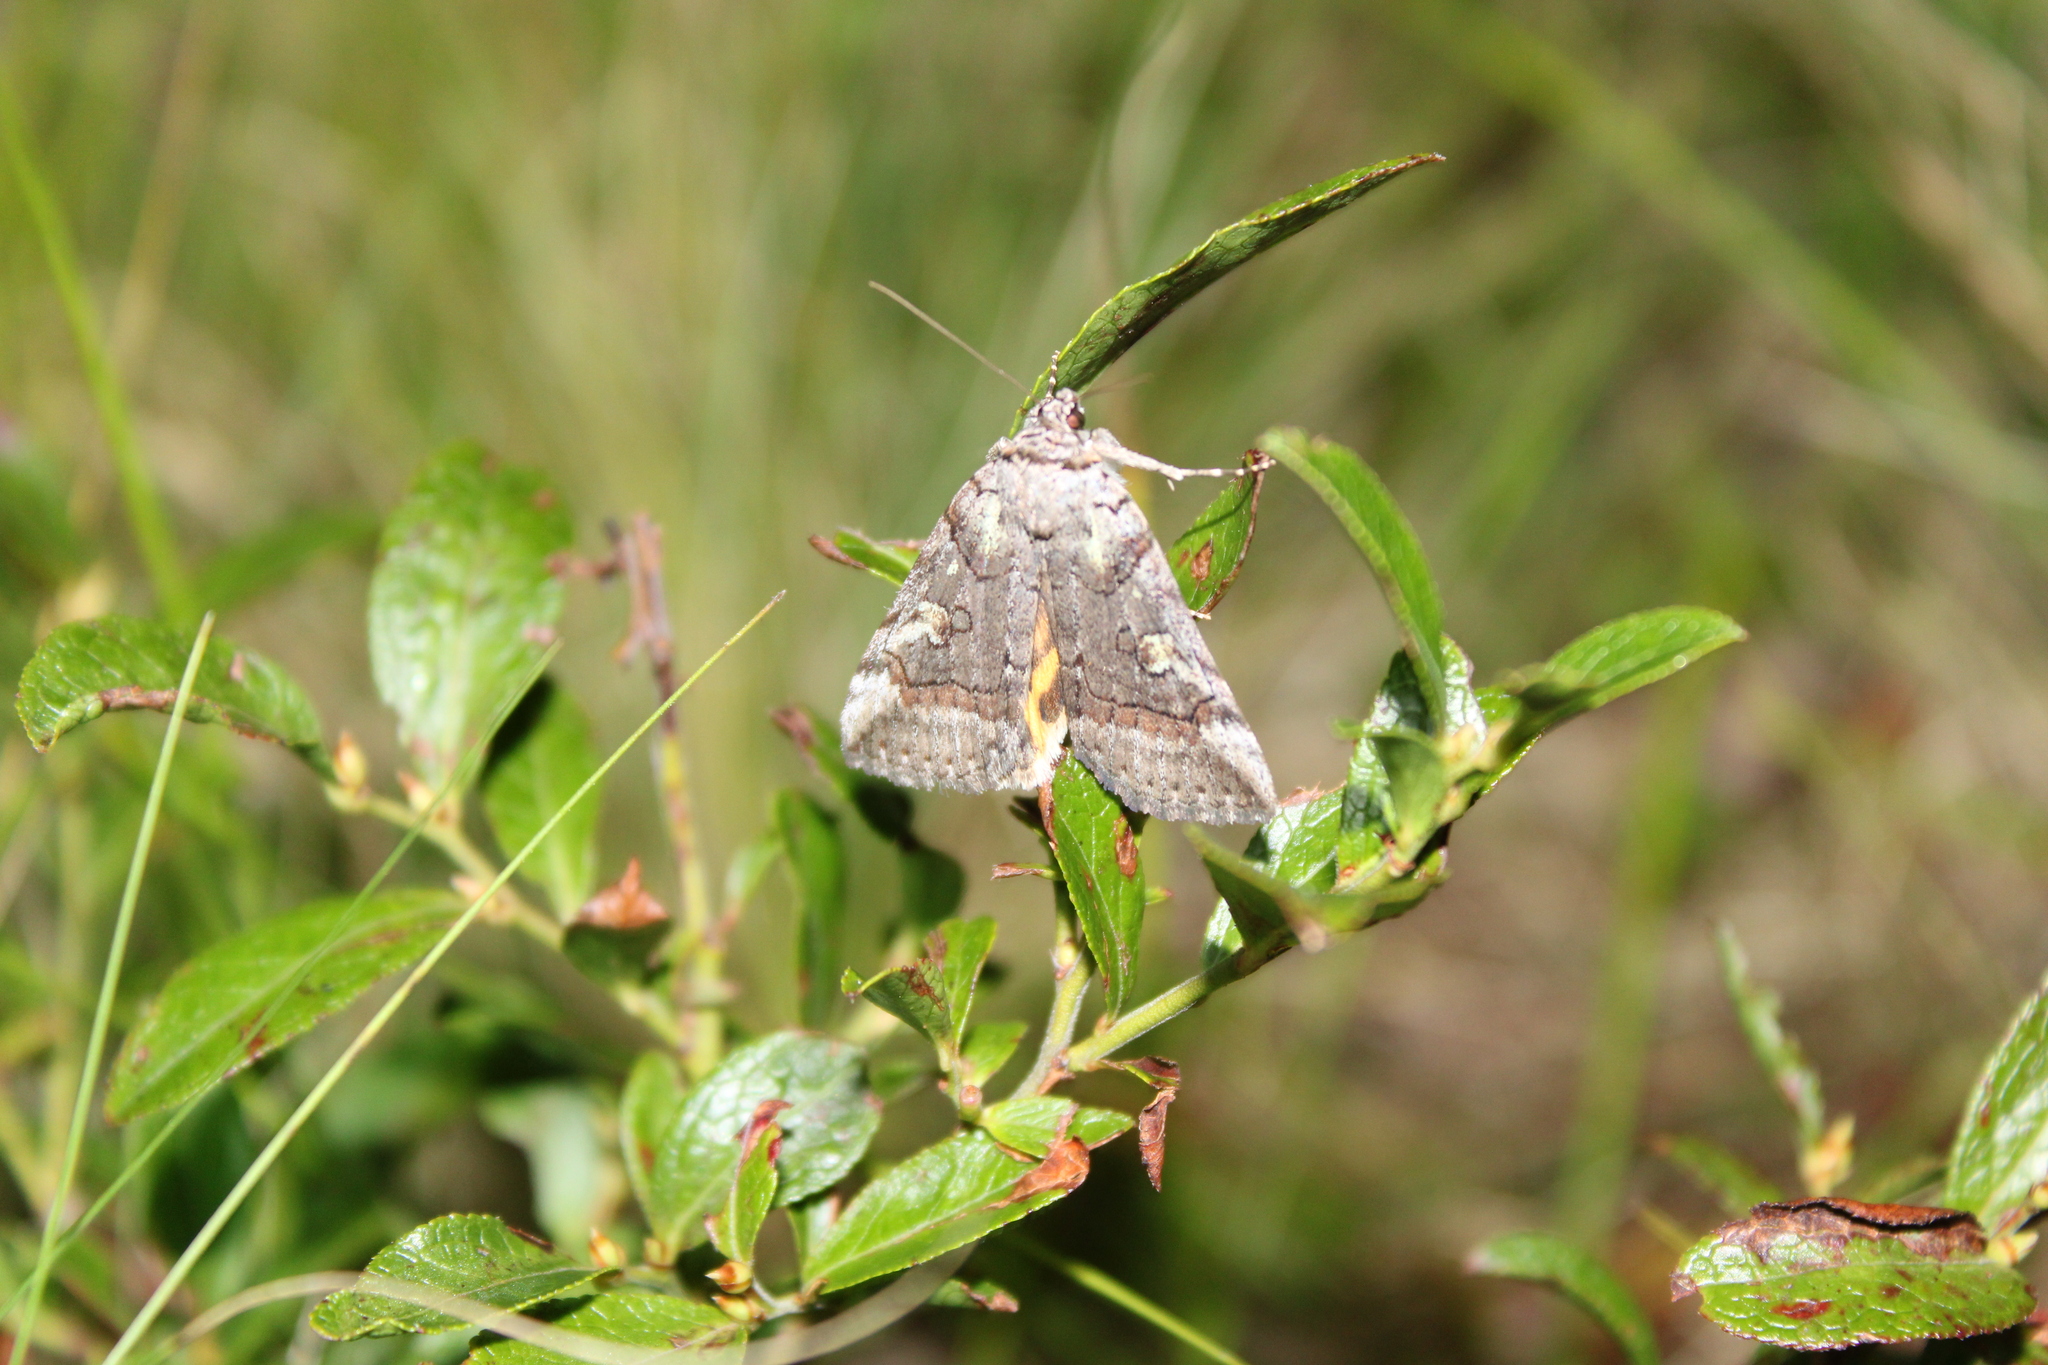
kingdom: Animalia
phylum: Arthropoda
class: Insecta
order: Lepidoptera
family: Erebidae
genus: Catocala
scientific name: Catocala similis
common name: Similar underwing
